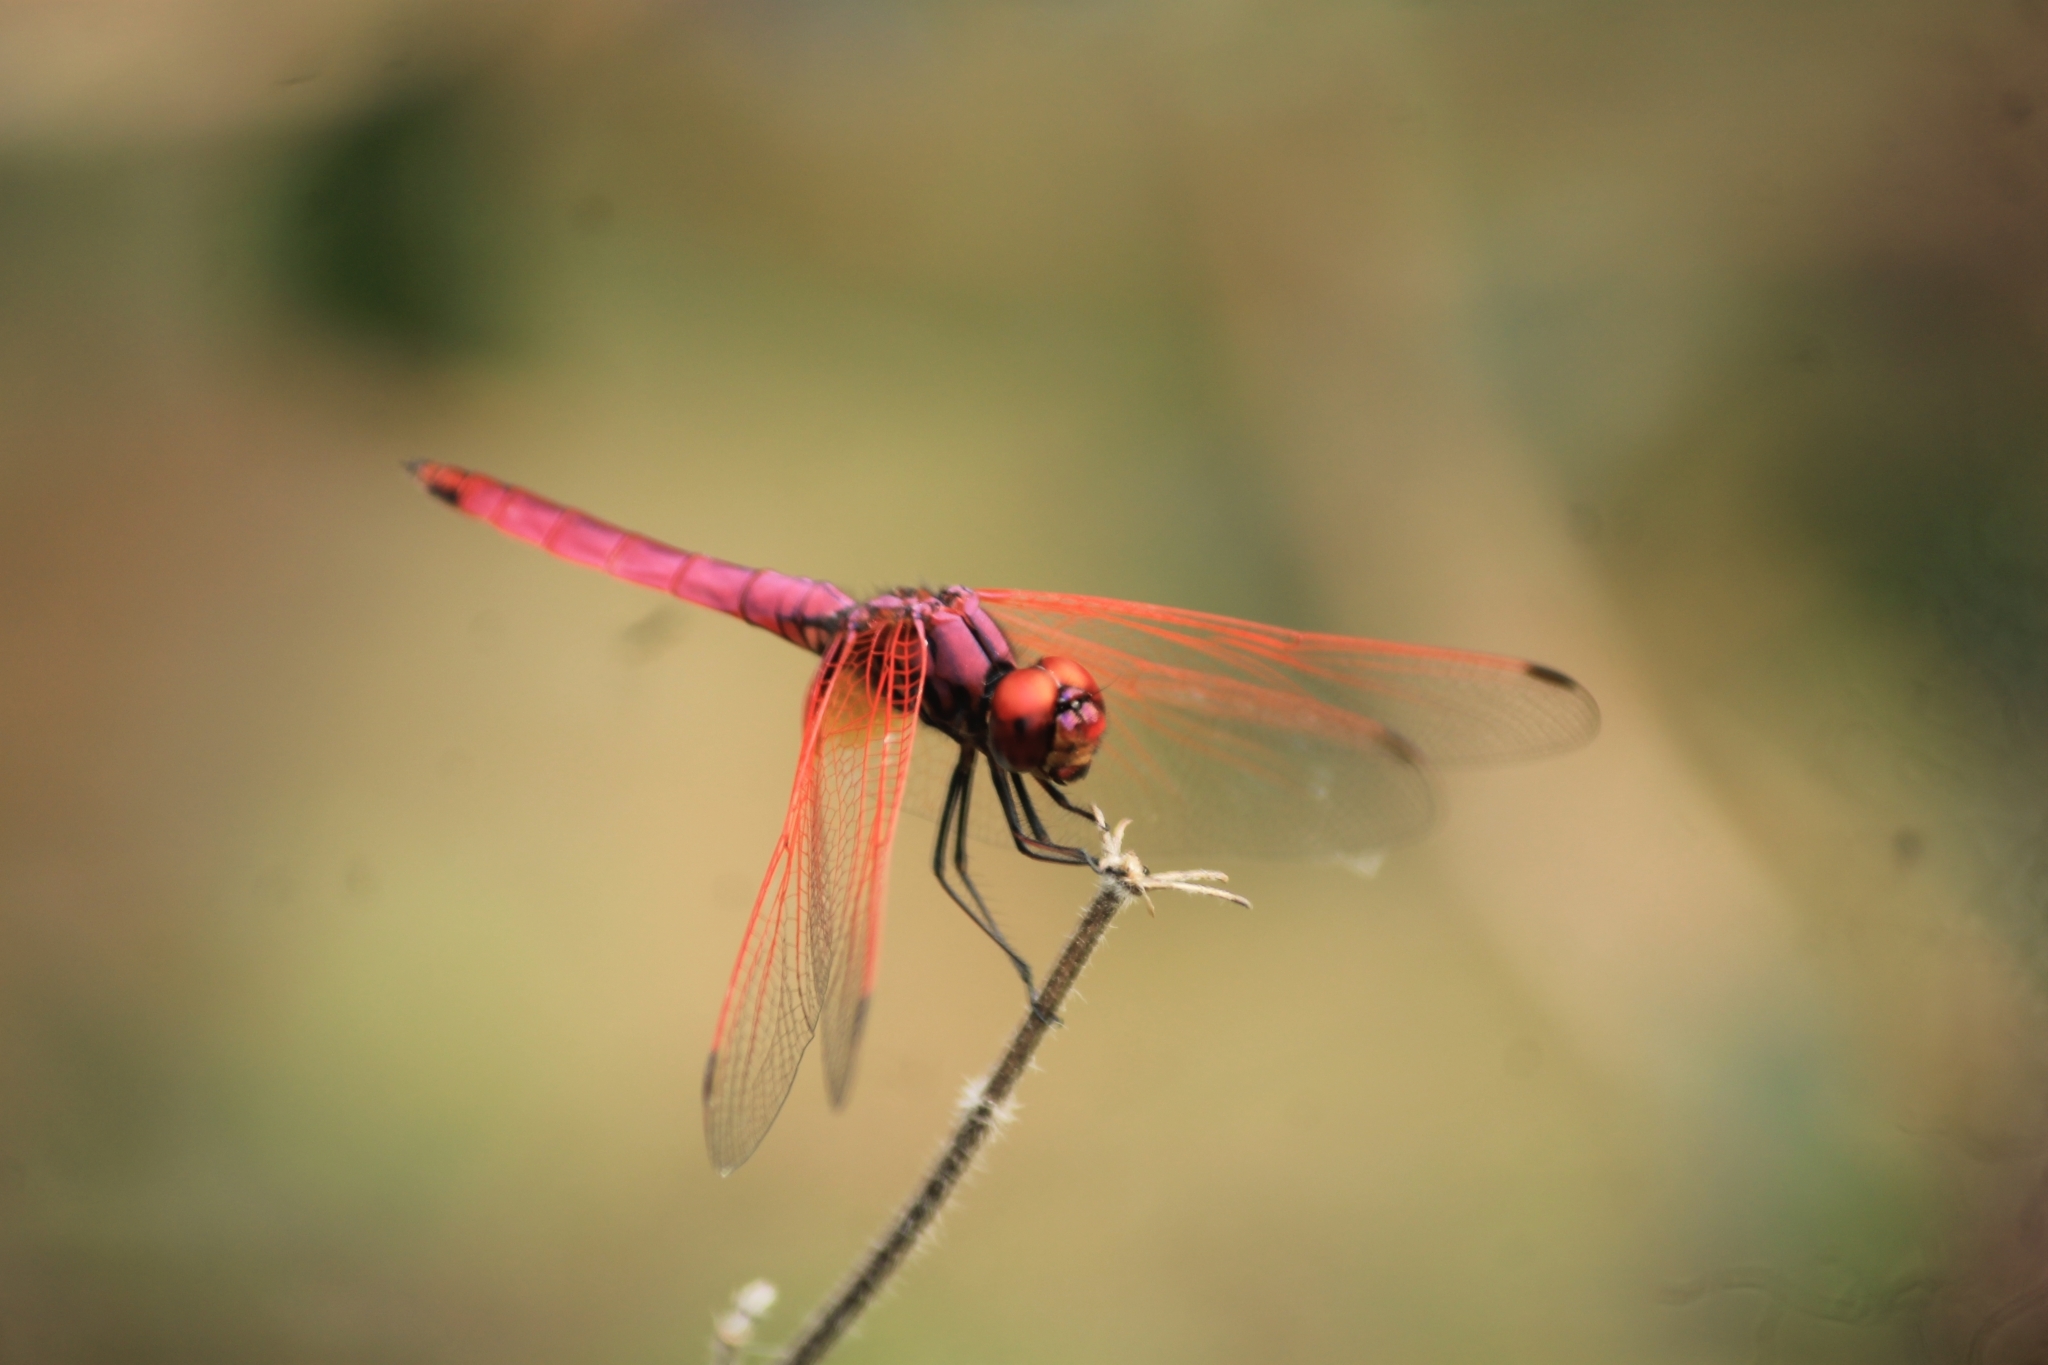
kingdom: Animalia
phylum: Arthropoda
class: Insecta
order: Odonata
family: Libellulidae
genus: Trithemis
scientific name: Trithemis aurora
